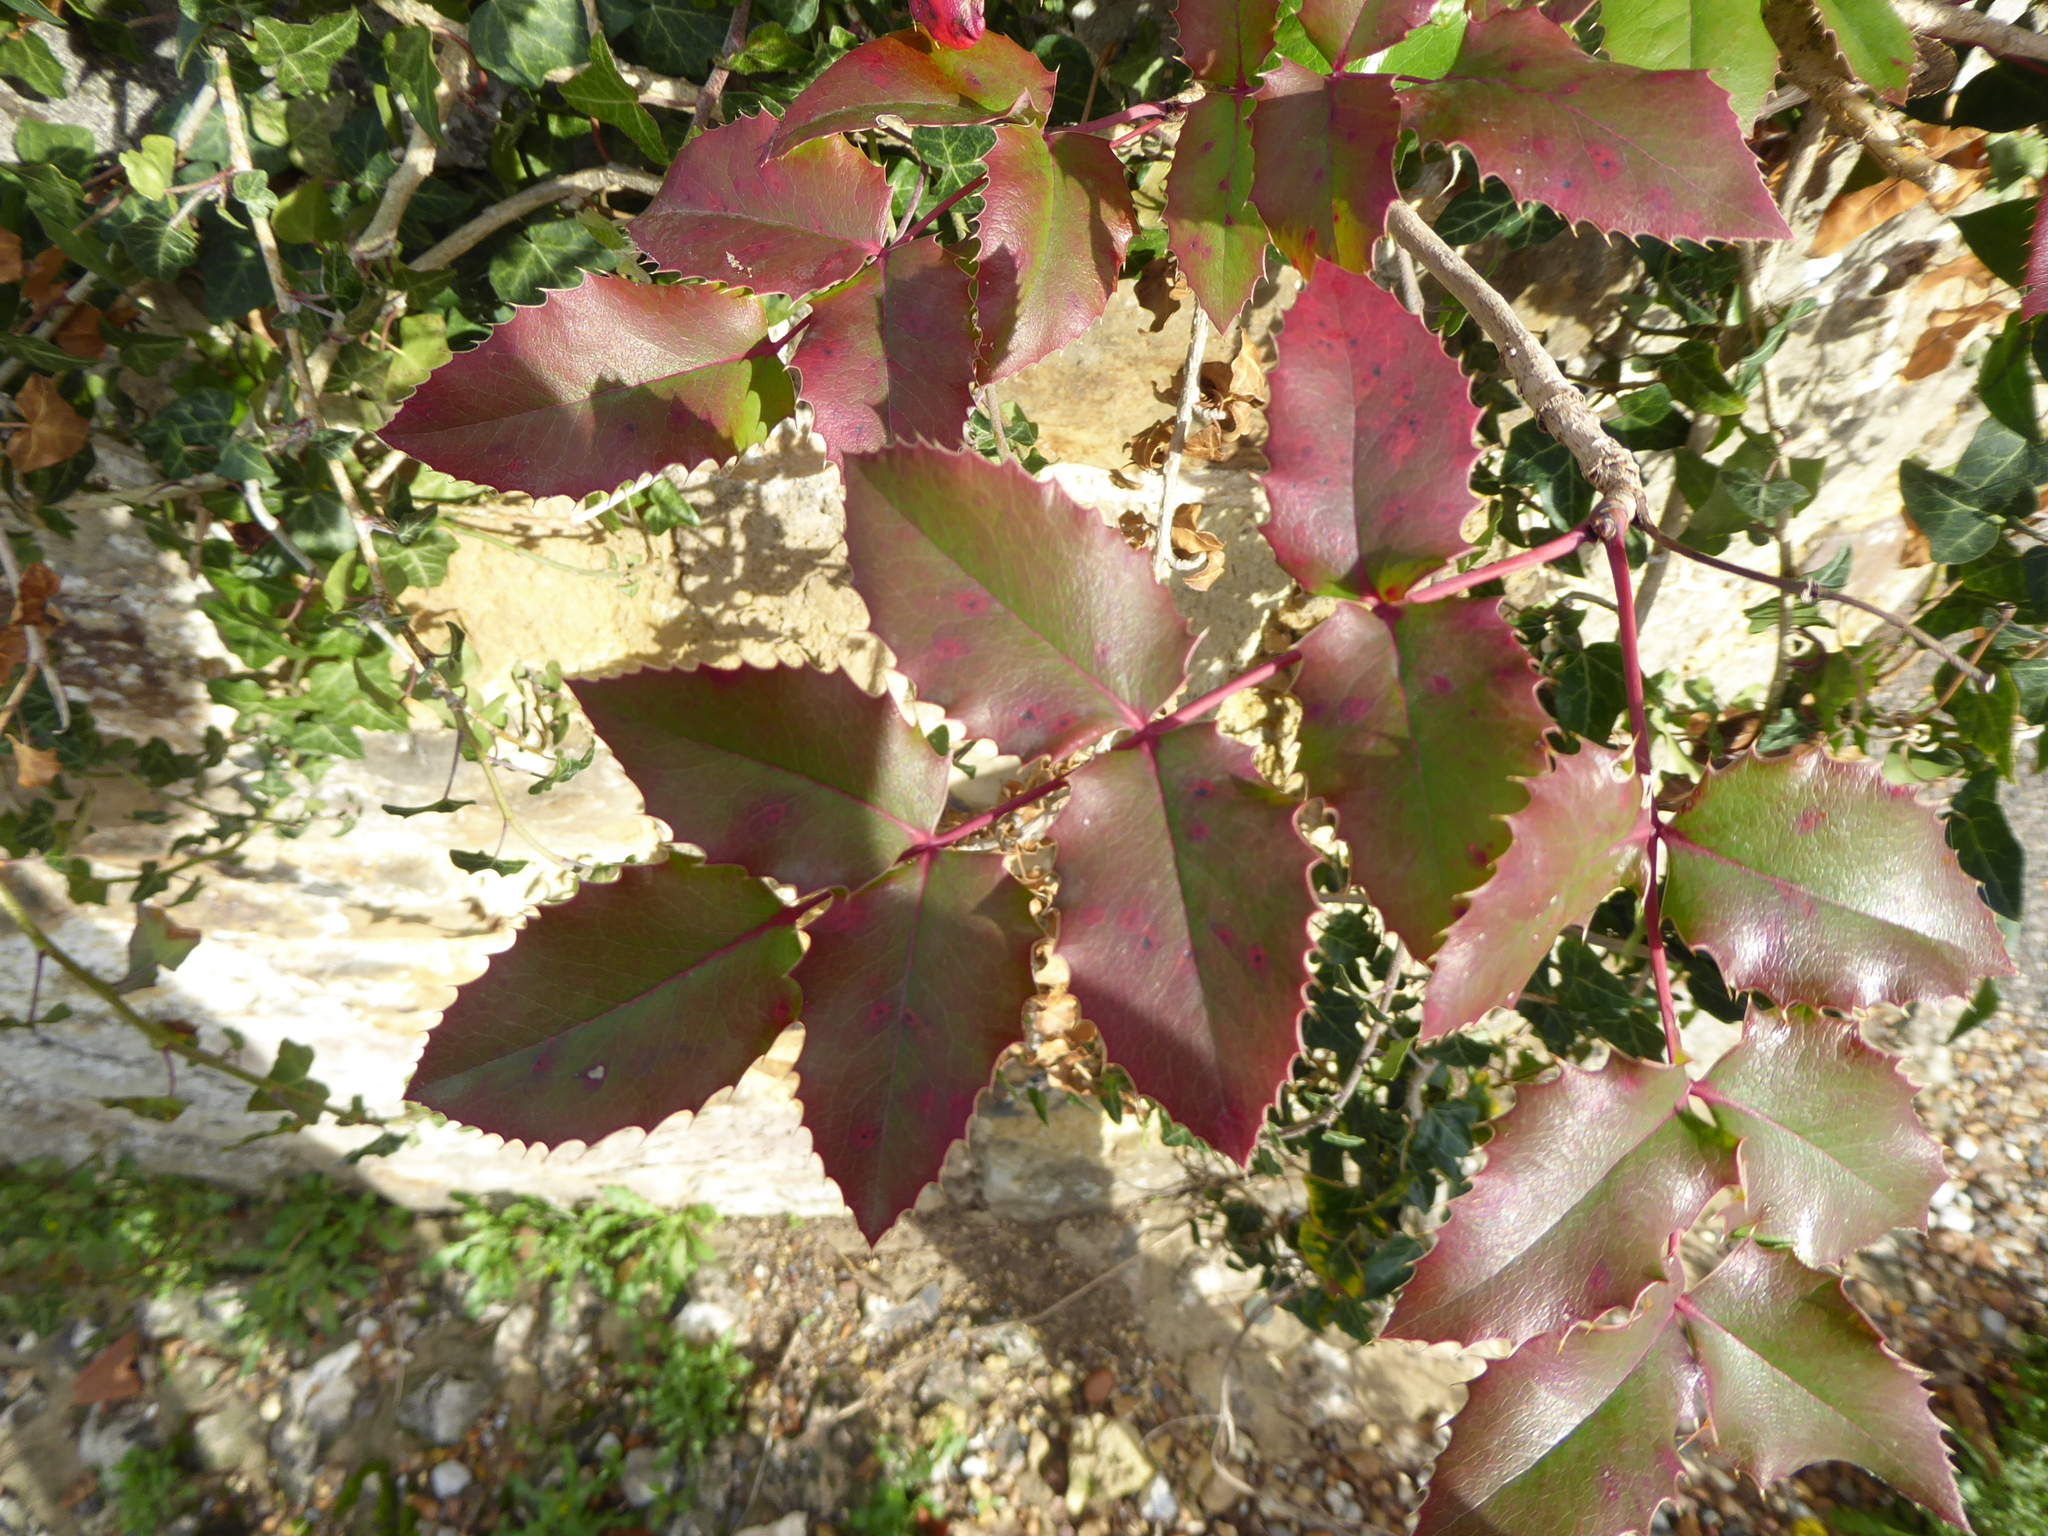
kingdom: Plantae
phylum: Tracheophyta
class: Magnoliopsida
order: Ranunculales
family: Berberidaceae
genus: Mahonia
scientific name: Mahonia aquifolium
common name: Oregon-grape
